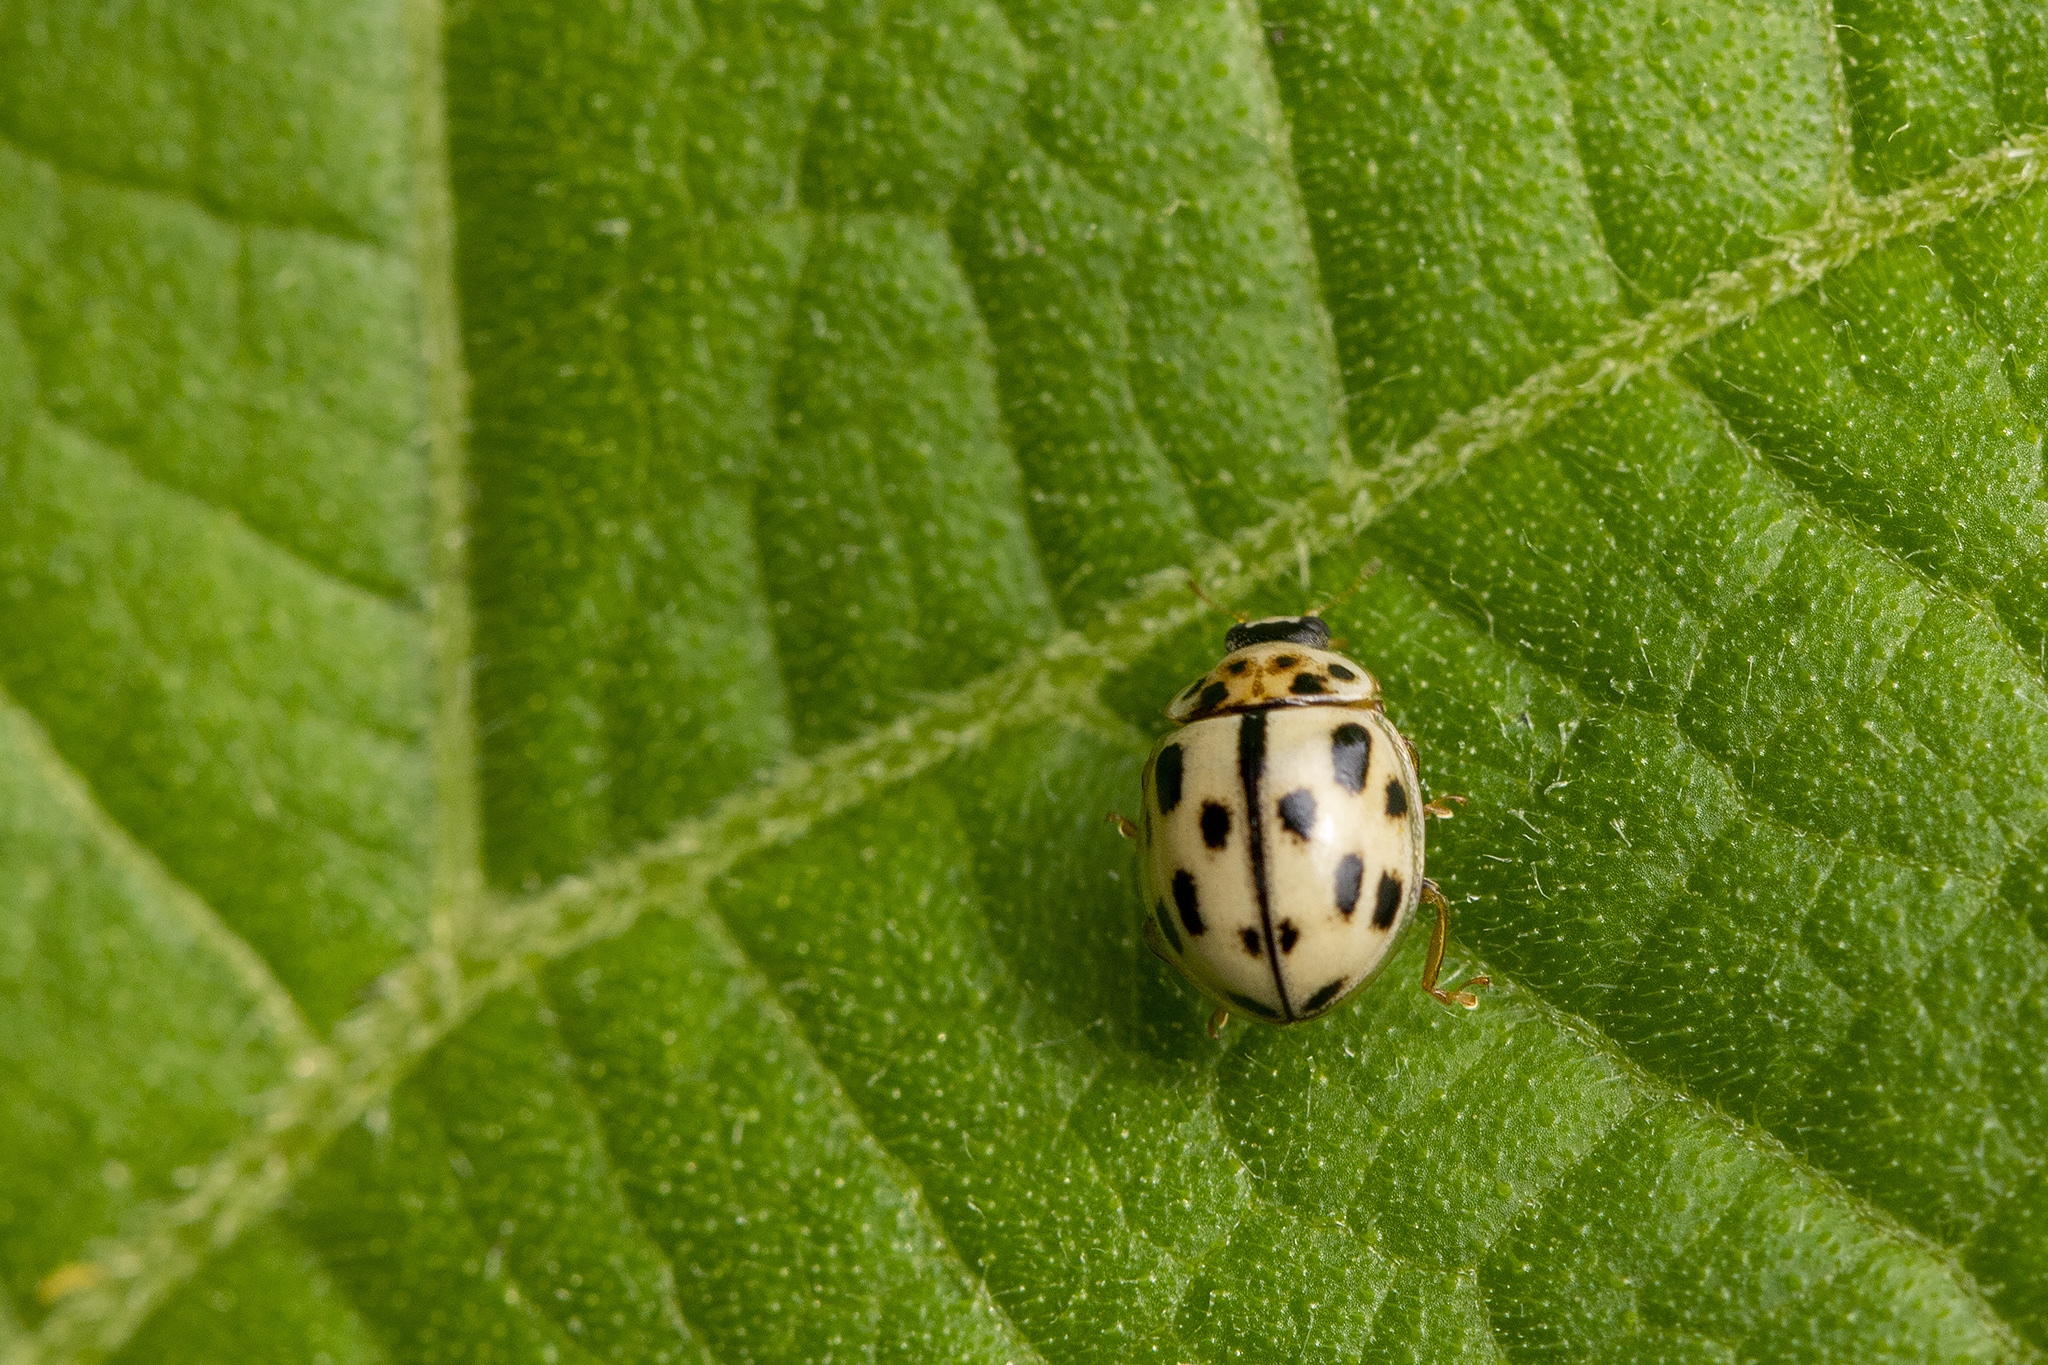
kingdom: Animalia
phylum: Arthropoda
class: Insecta
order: Coleoptera
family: Coccinellidae
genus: Propylaea
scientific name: Propylaea quatuordecimpunctata
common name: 14-spotted ladybird beetle
